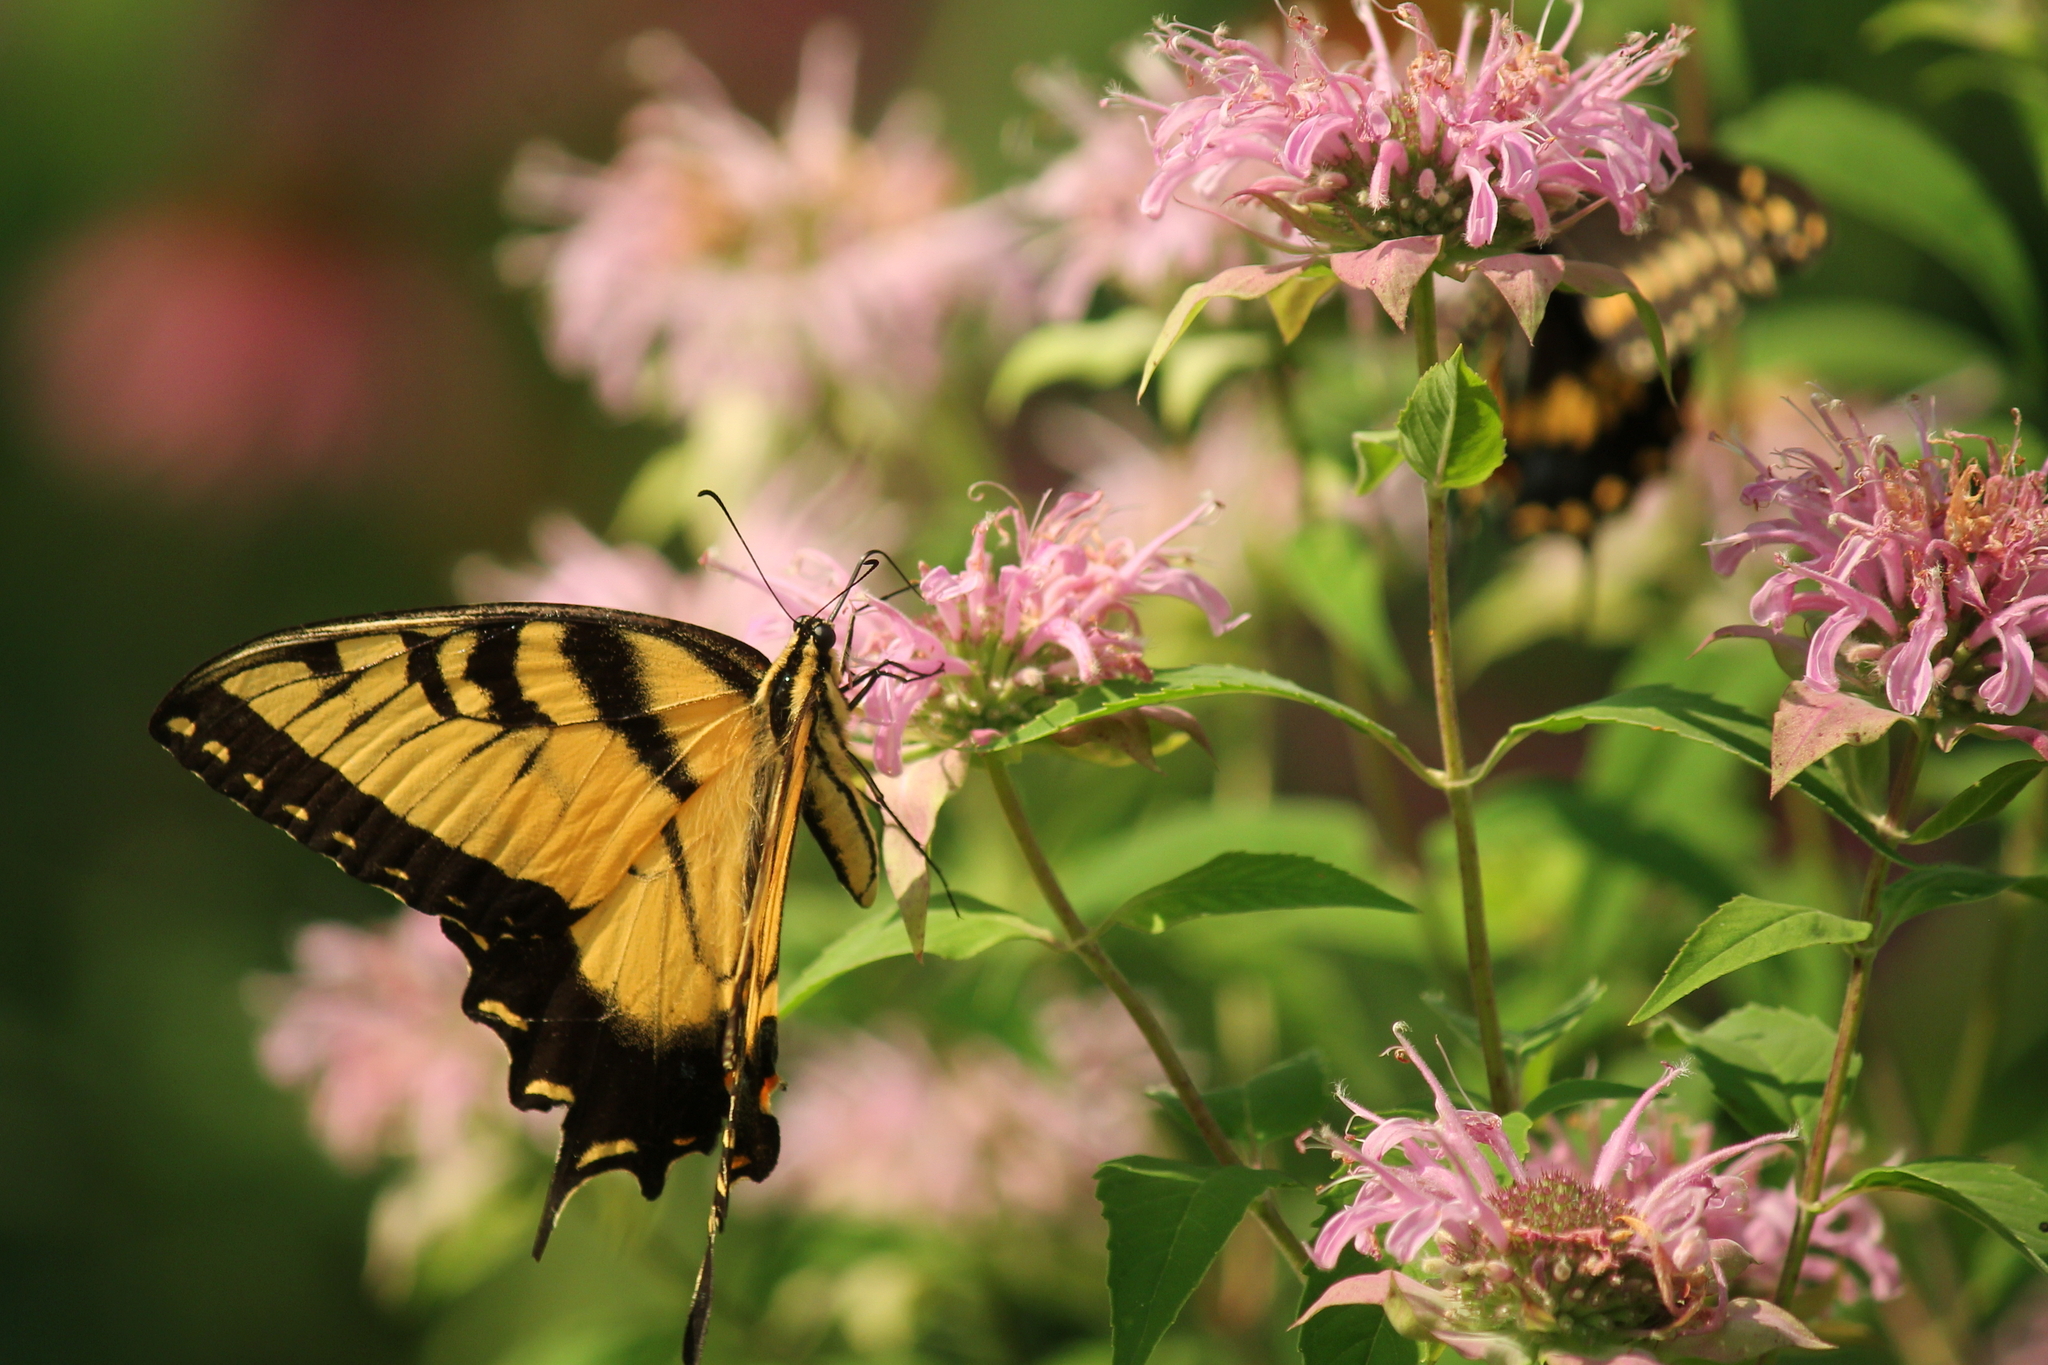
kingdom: Animalia
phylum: Arthropoda
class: Insecta
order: Lepidoptera
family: Papilionidae
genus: Papilio
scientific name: Papilio glaucus
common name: Tiger swallowtail
